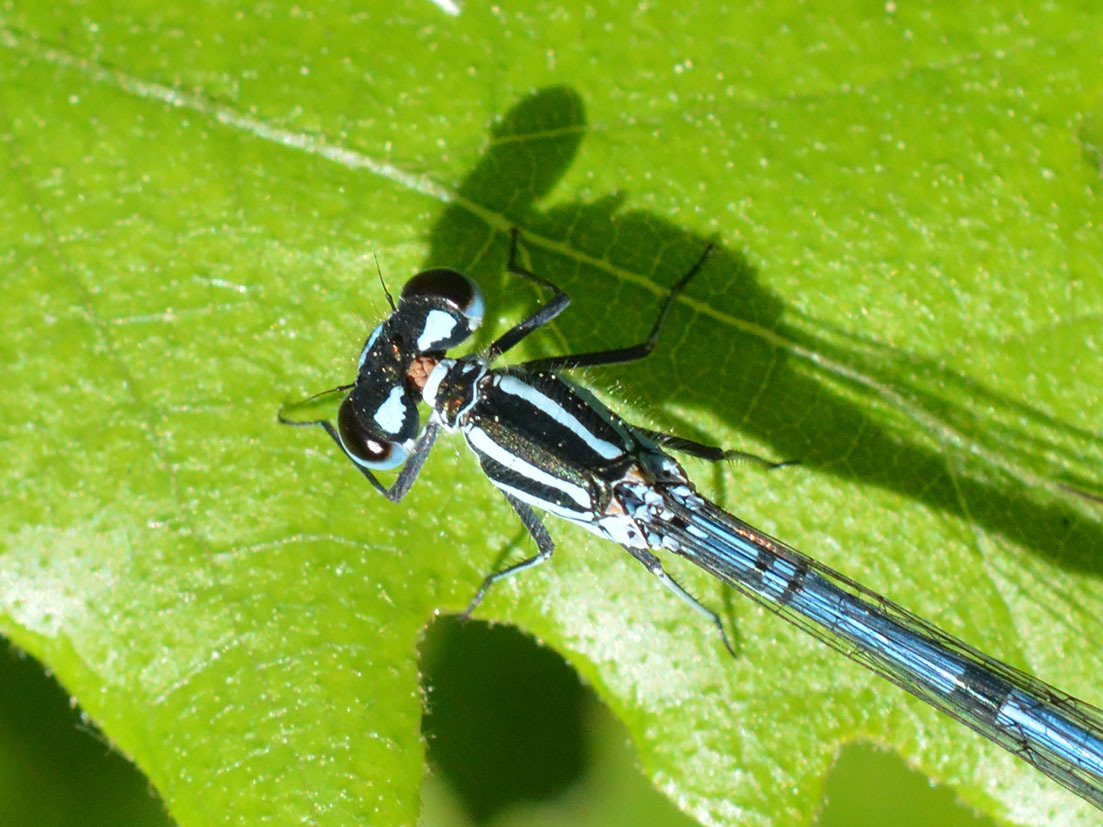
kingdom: Animalia
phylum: Arthropoda
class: Insecta
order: Odonata
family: Coenagrionidae
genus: Coenagrion
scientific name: Coenagrion puella
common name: Azure damselfly
